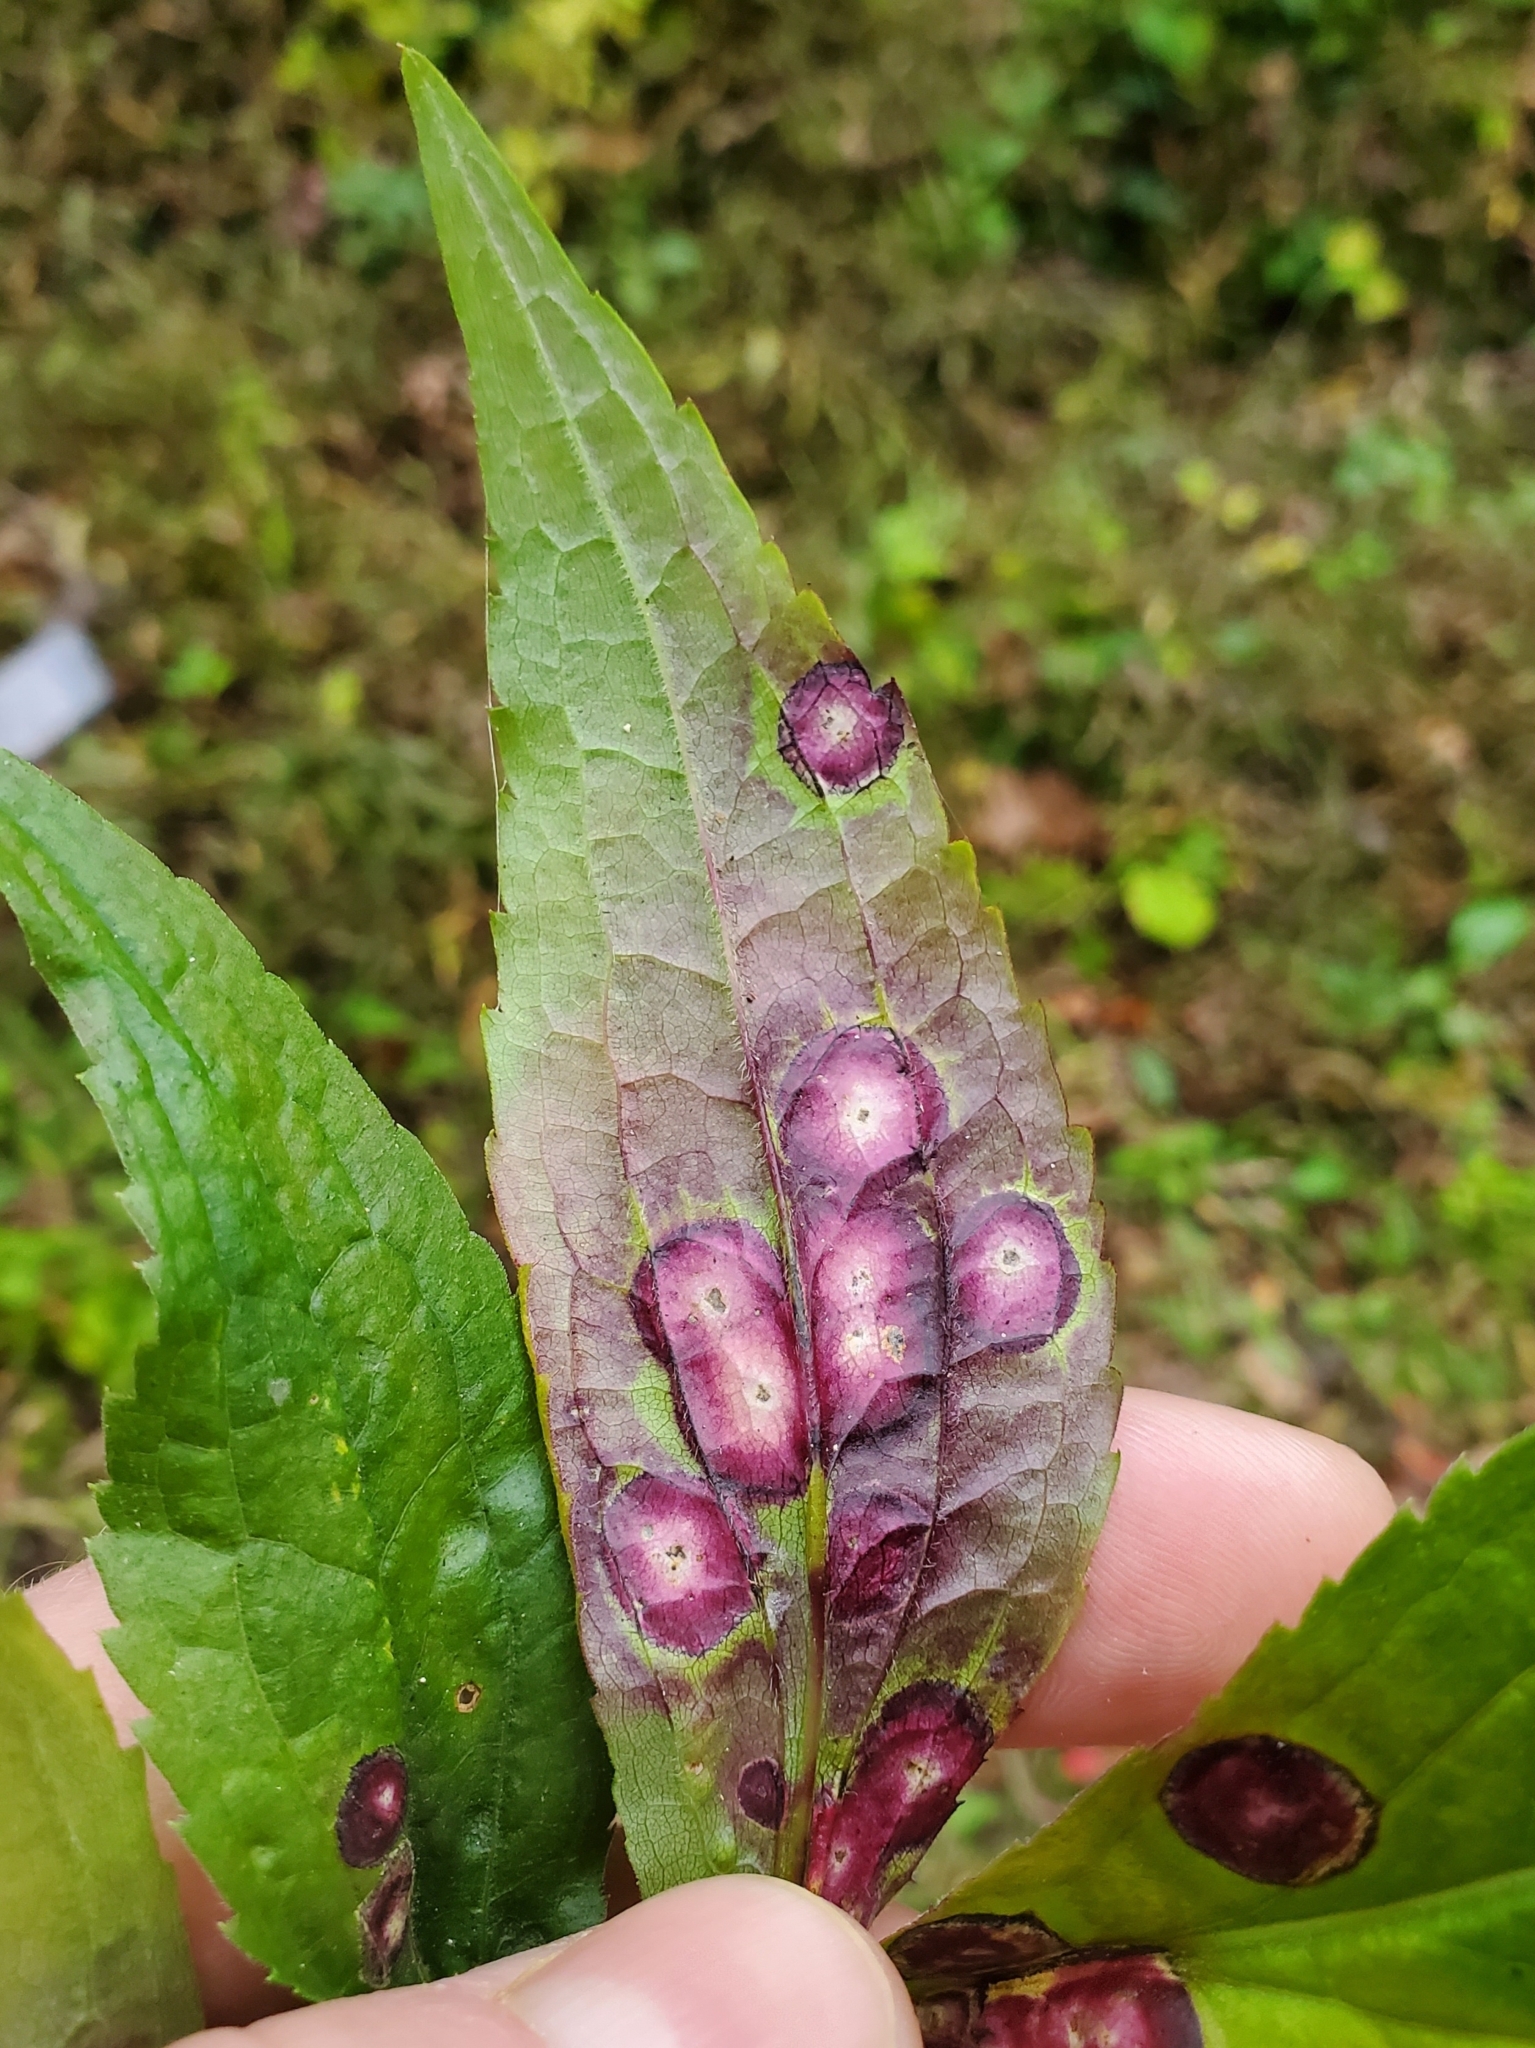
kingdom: Animalia
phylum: Arthropoda
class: Insecta
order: Diptera
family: Cecidomyiidae
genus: Asteromyia
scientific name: Asteromyia carbonifera
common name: Carbonifera goldenrod gall midge
